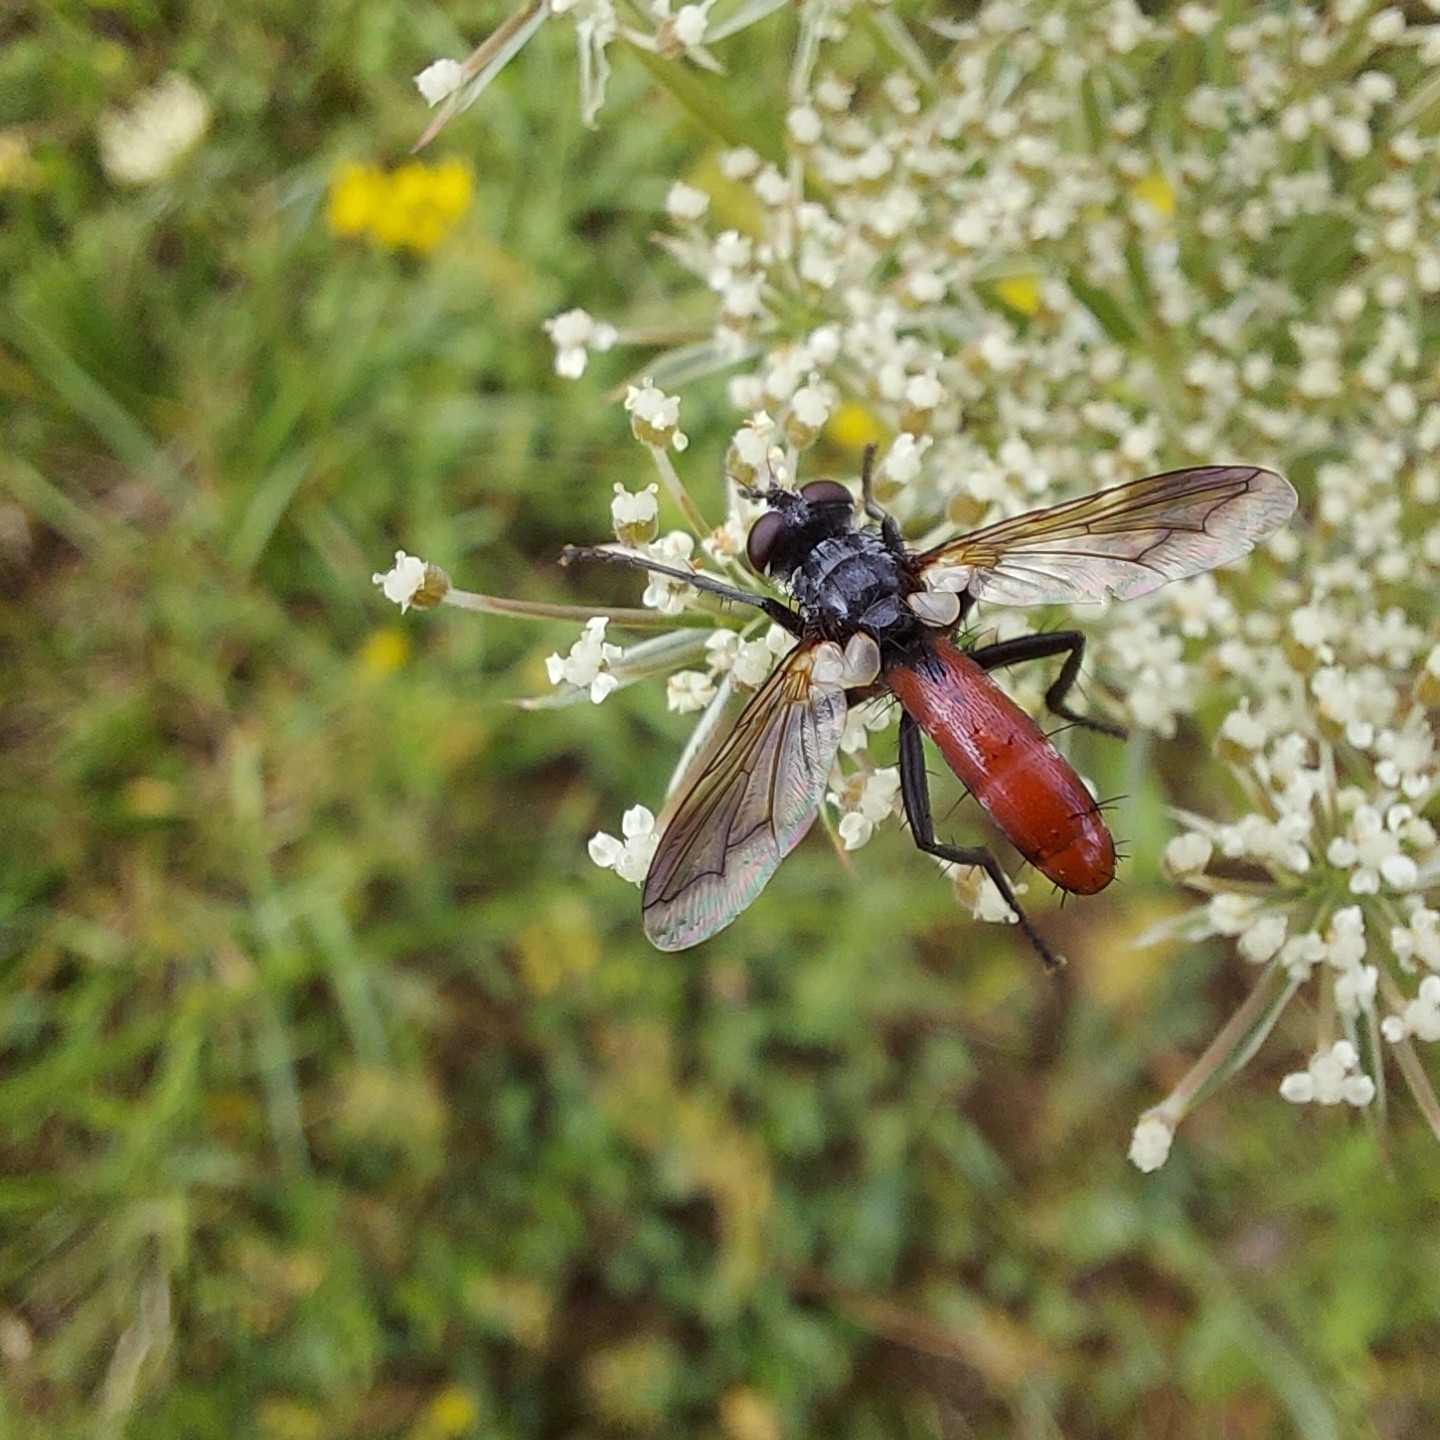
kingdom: Animalia
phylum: Arthropoda
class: Insecta
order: Diptera
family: Tachinidae
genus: Cylindromyia
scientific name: Cylindromyia bicolor
